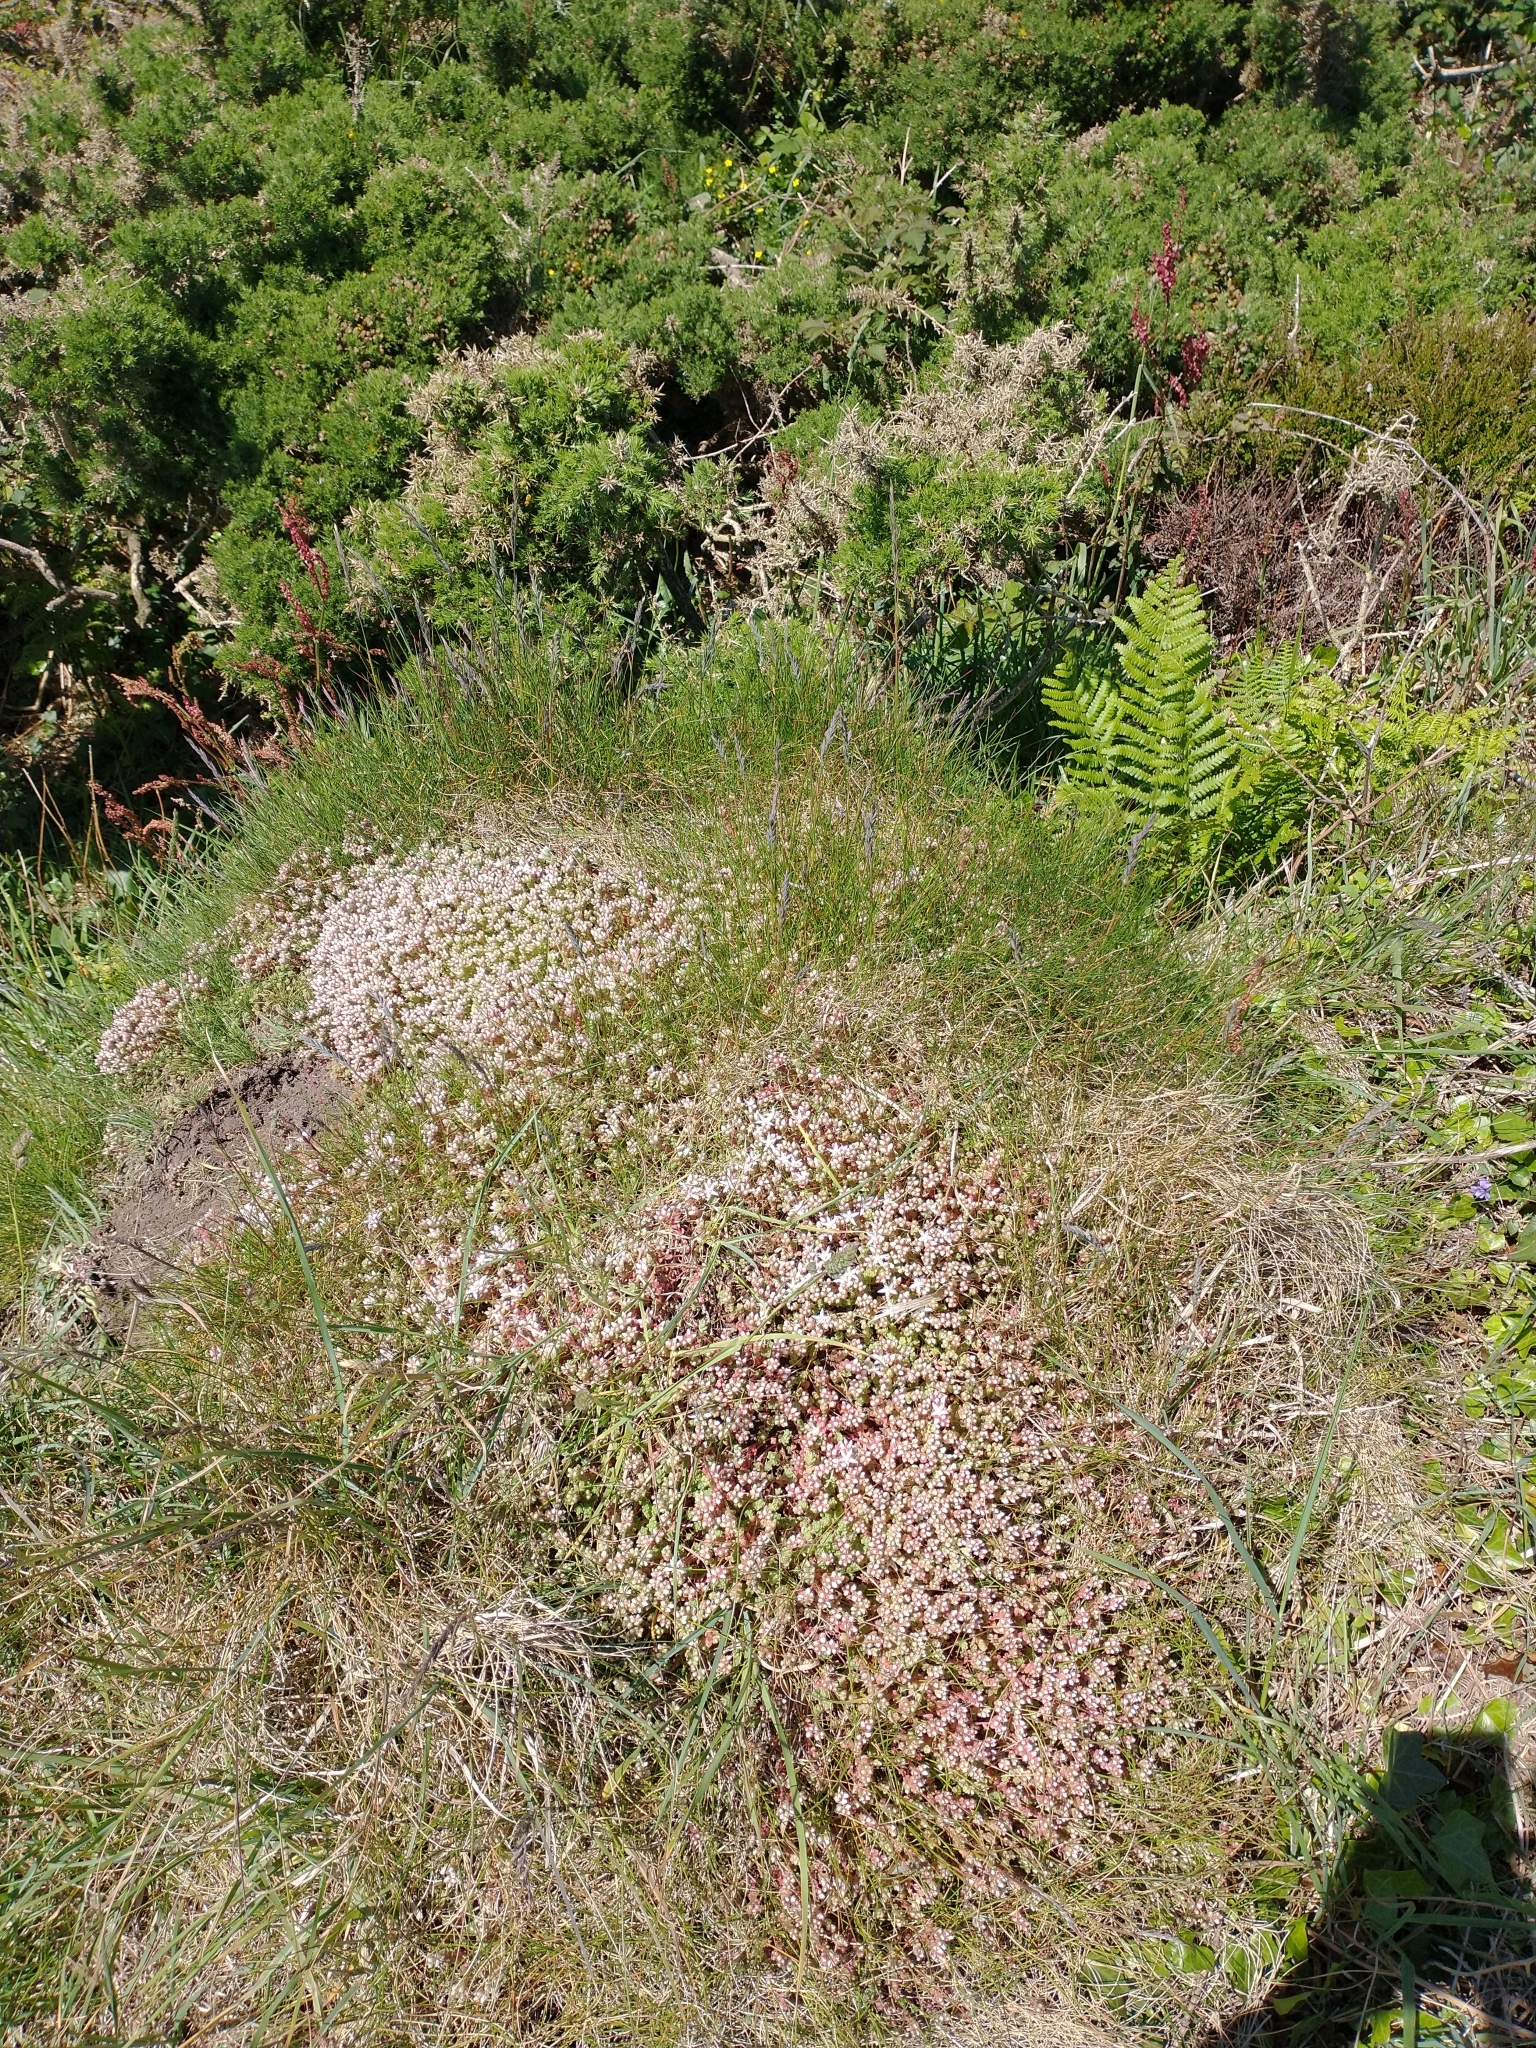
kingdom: Plantae
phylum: Tracheophyta
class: Magnoliopsida
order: Saxifragales
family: Crassulaceae
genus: Sedum
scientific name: Sedum anglicum
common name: English stonecrop
